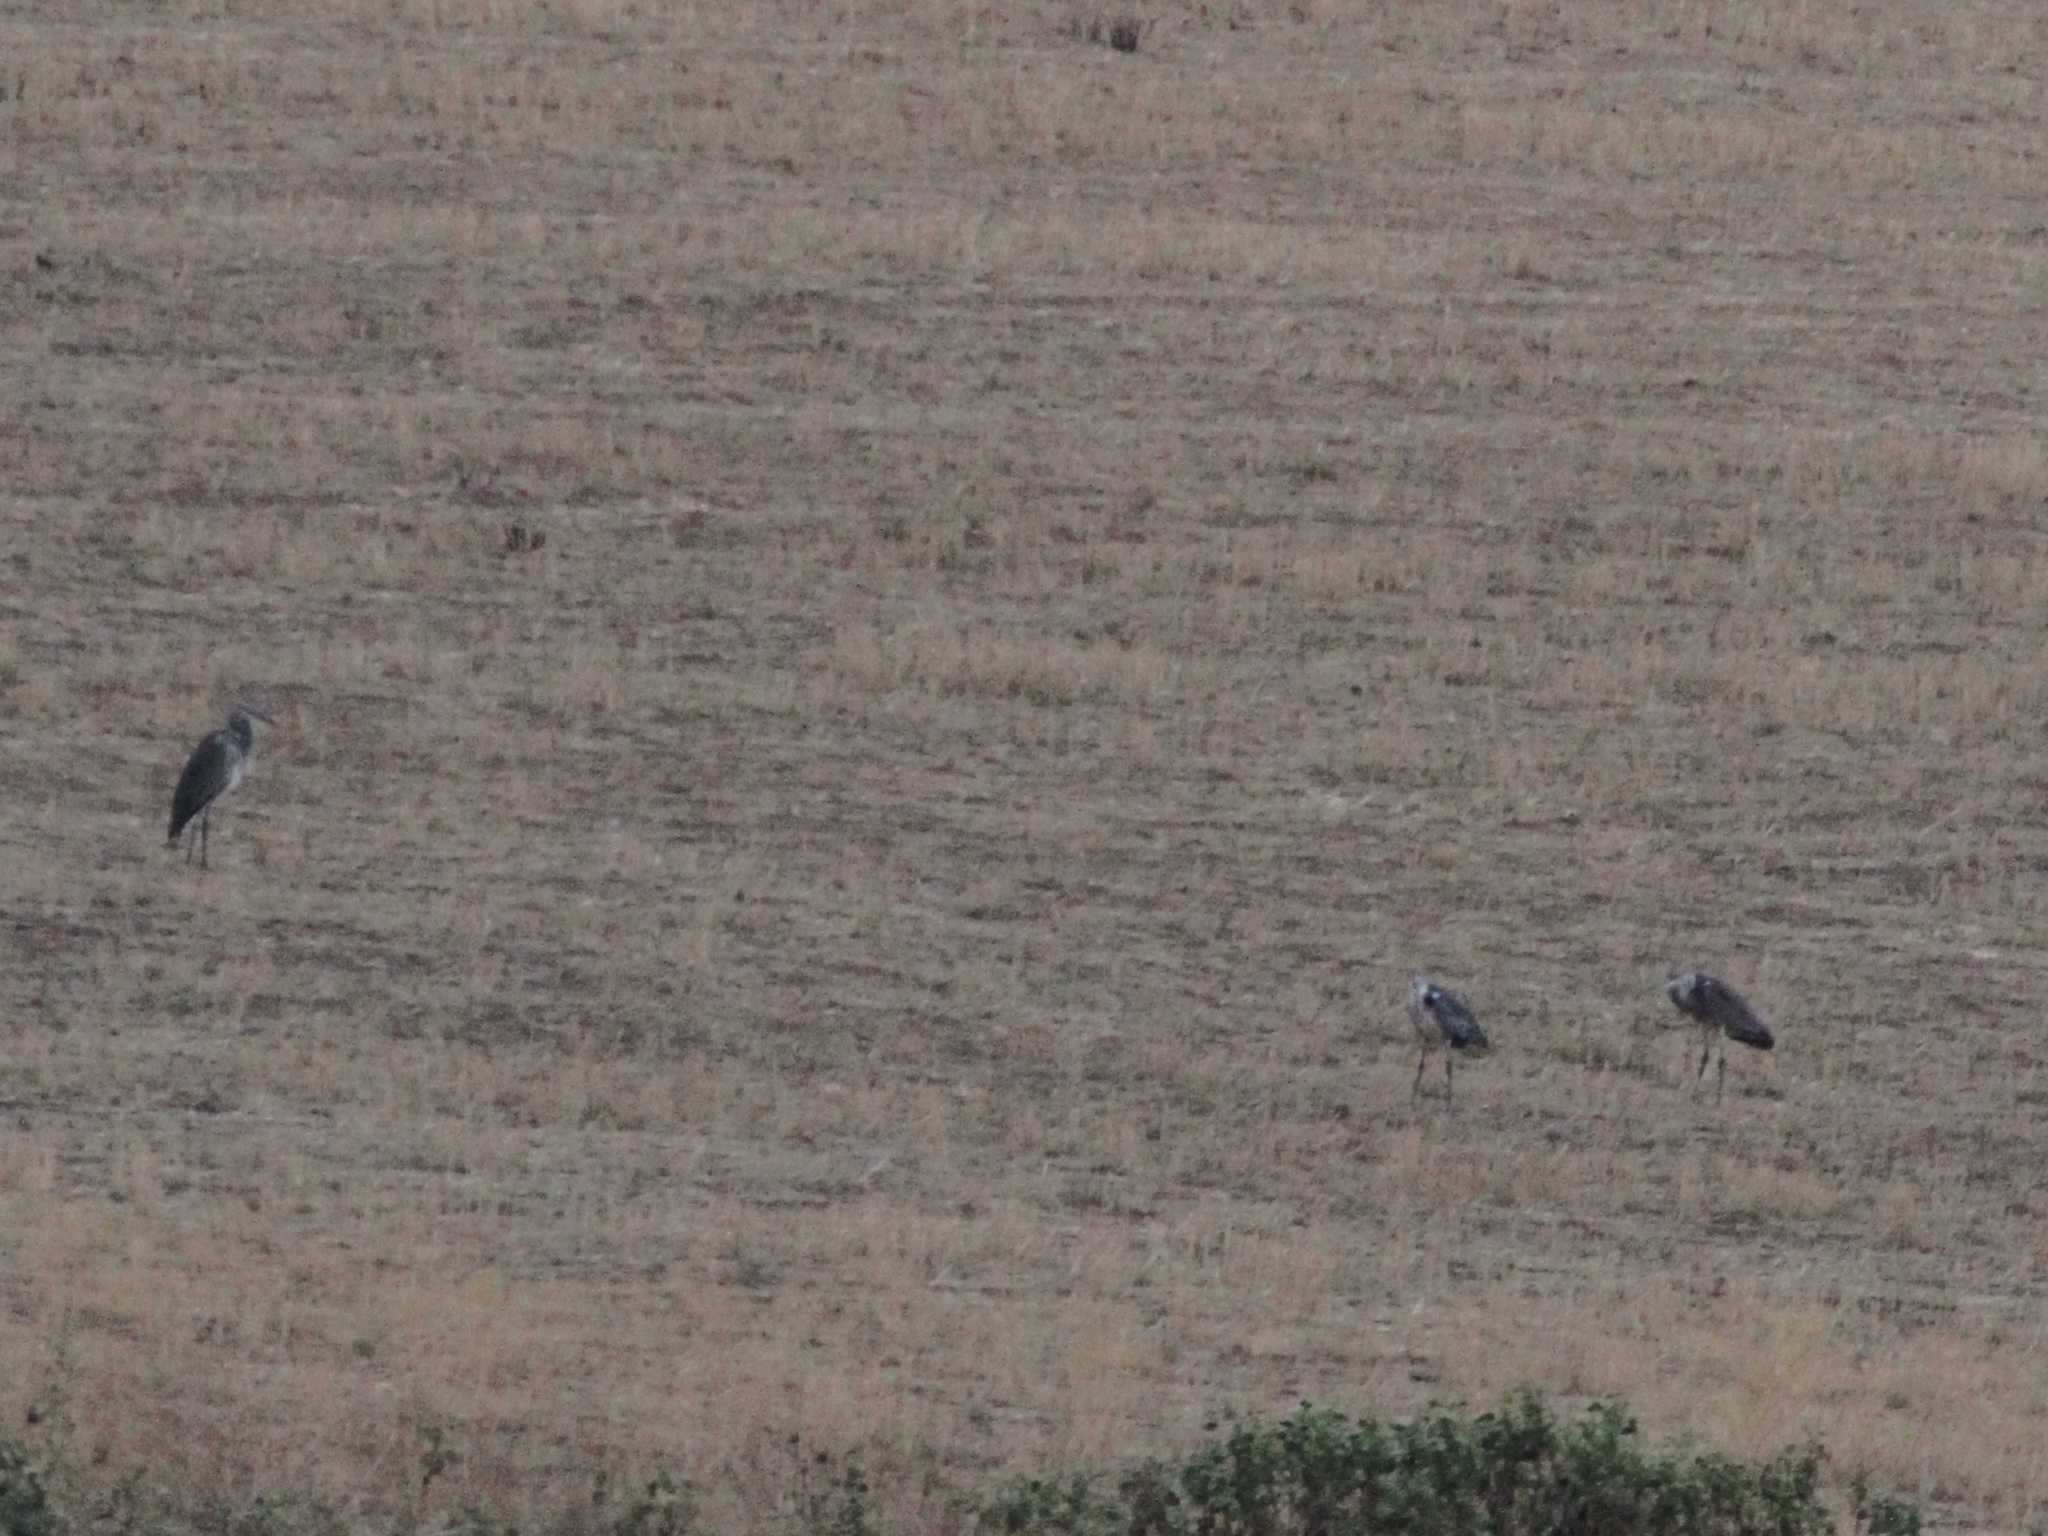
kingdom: Animalia
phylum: Chordata
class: Aves
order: Pelecaniformes
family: Ardeidae
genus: Ardea
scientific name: Ardea cinerea
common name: Grey heron
